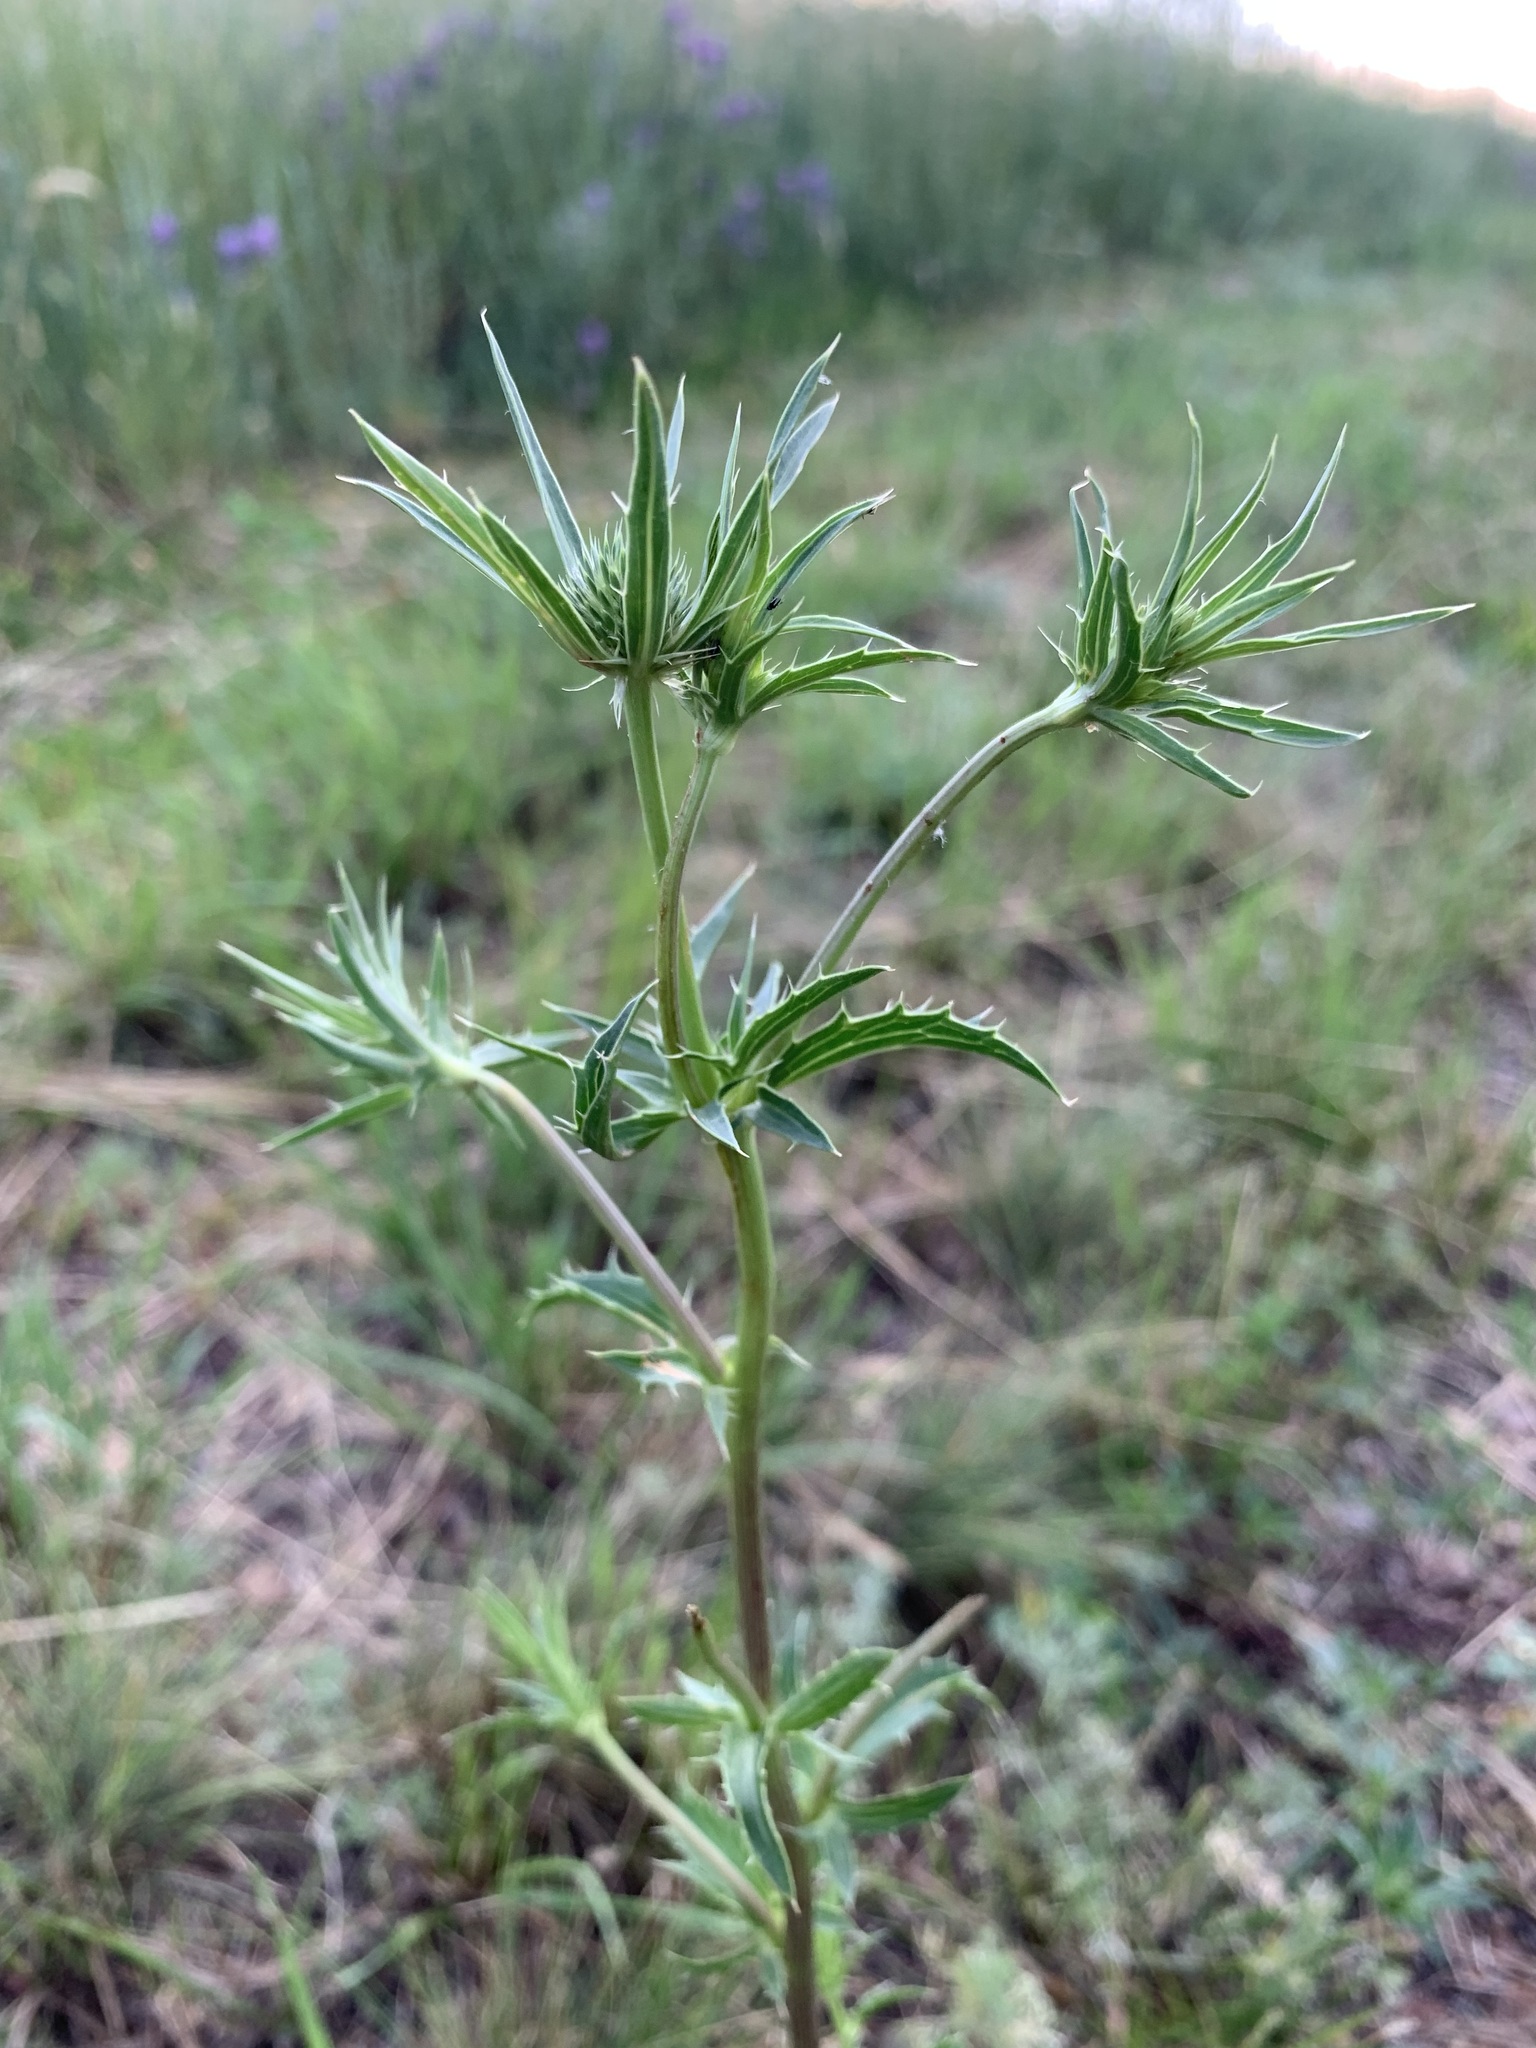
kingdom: Plantae
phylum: Tracheophyta
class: Magnoliopsida
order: Apiales
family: Apiaceae
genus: Eryngium
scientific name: Eryngium planum
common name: Blue eryngo
